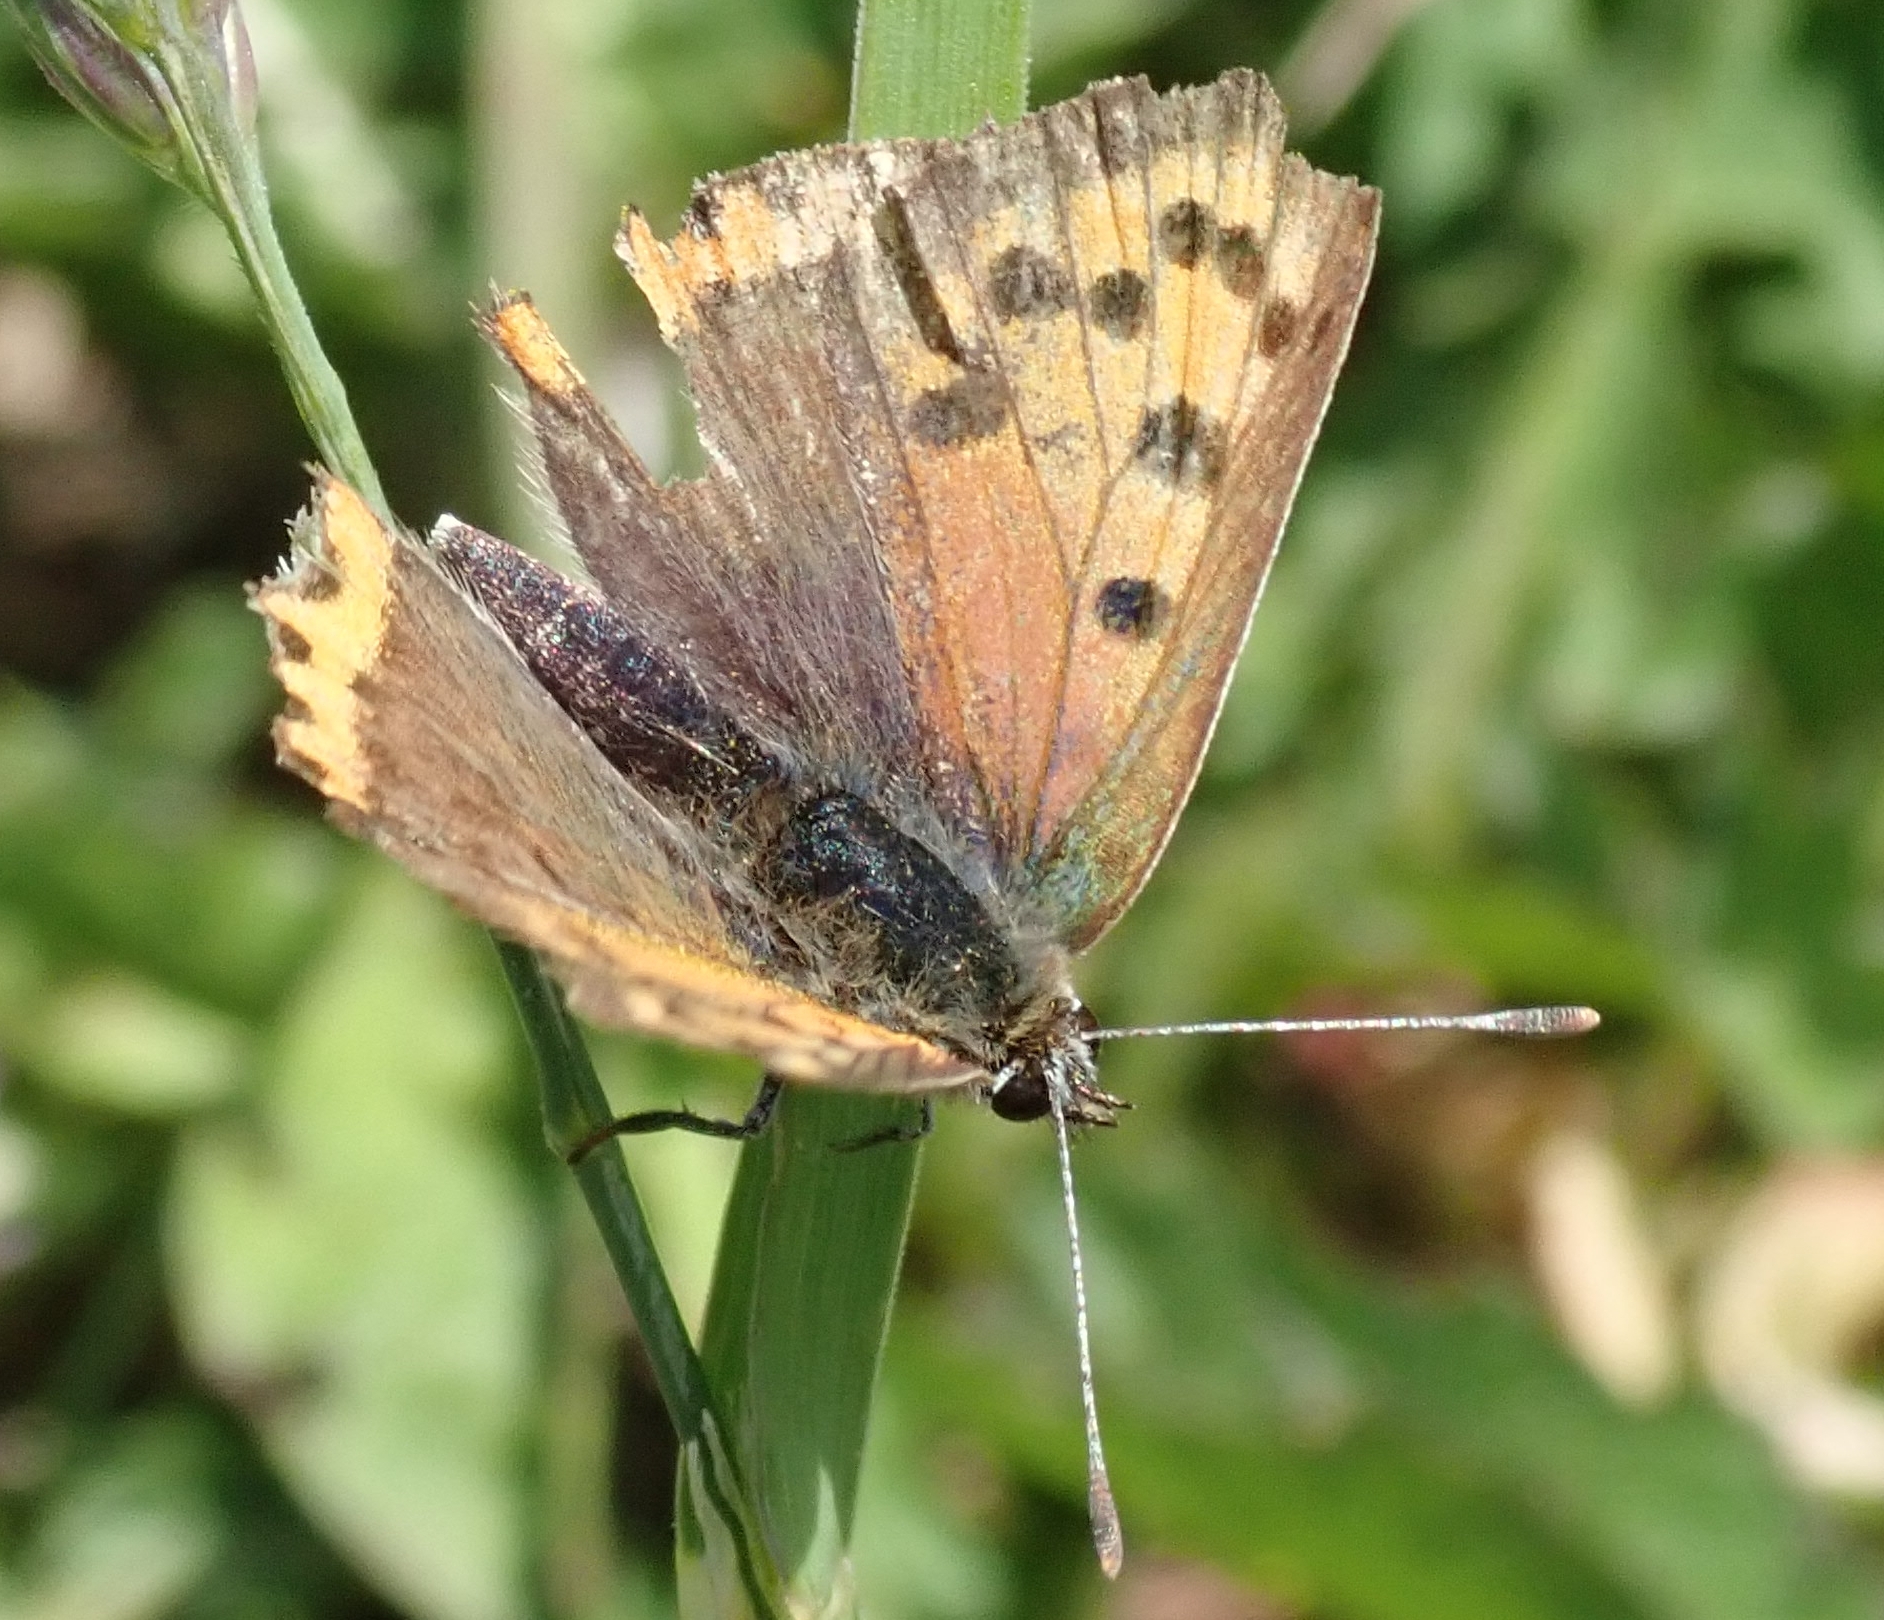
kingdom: Animalia
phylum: Arthropoda
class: Insecta
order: Lepidoptera
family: Lycaenidae
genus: Lycaena
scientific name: Lycaena phlaeas
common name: Small copper
